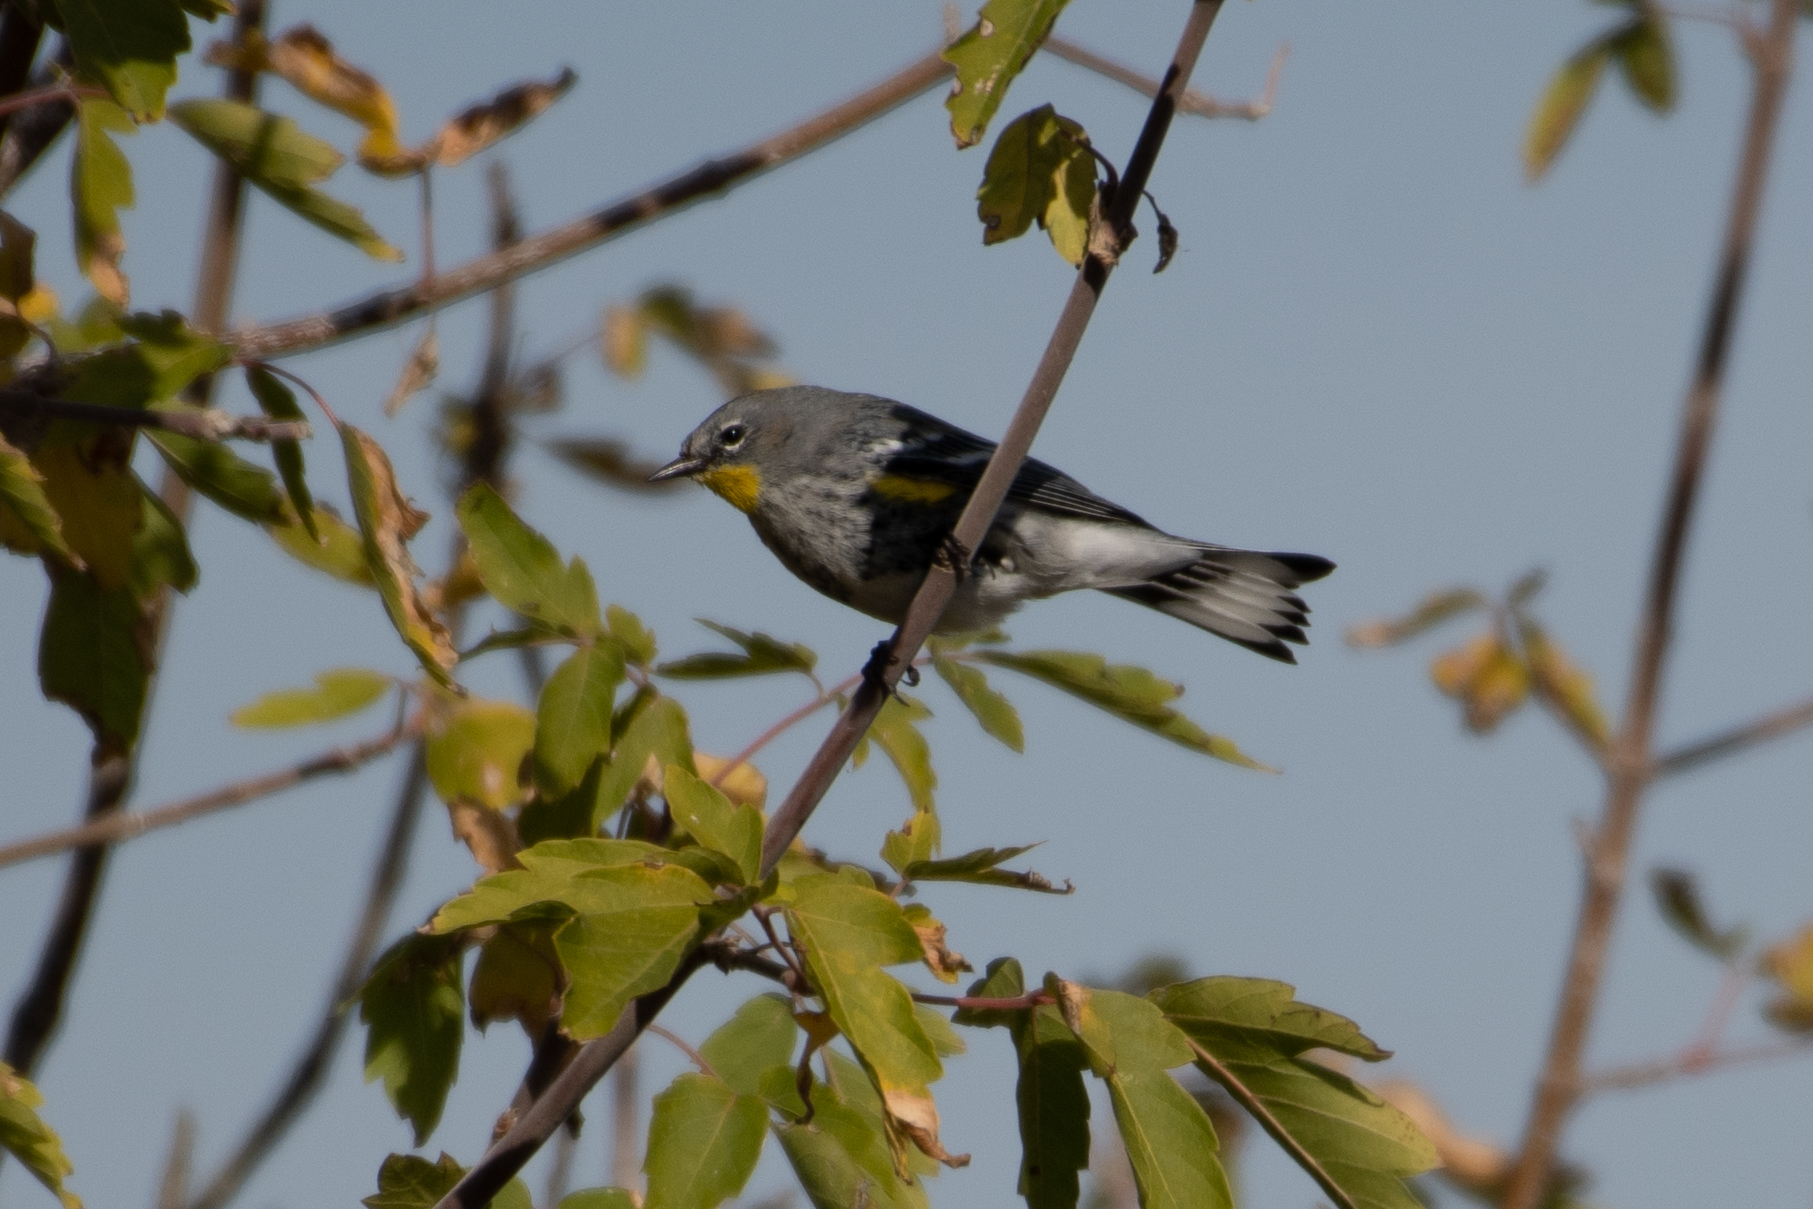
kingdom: Animalia
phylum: Chordata
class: Aves
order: Passeriformes
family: Parulidae
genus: Setophaga
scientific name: Setophaga coronata
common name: Myrtle warbler
